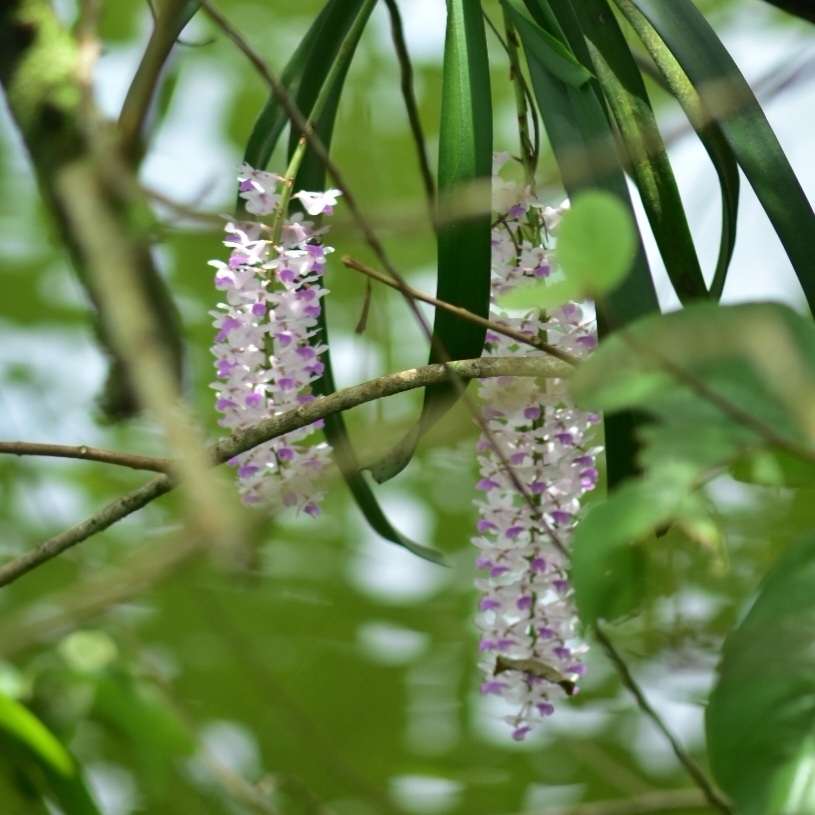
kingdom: Plantae
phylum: Tracheophyta
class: Liliopsida
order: Asparagales
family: Orchidaceae
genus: Rhynchostylis
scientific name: Rhynchostylis retusa
